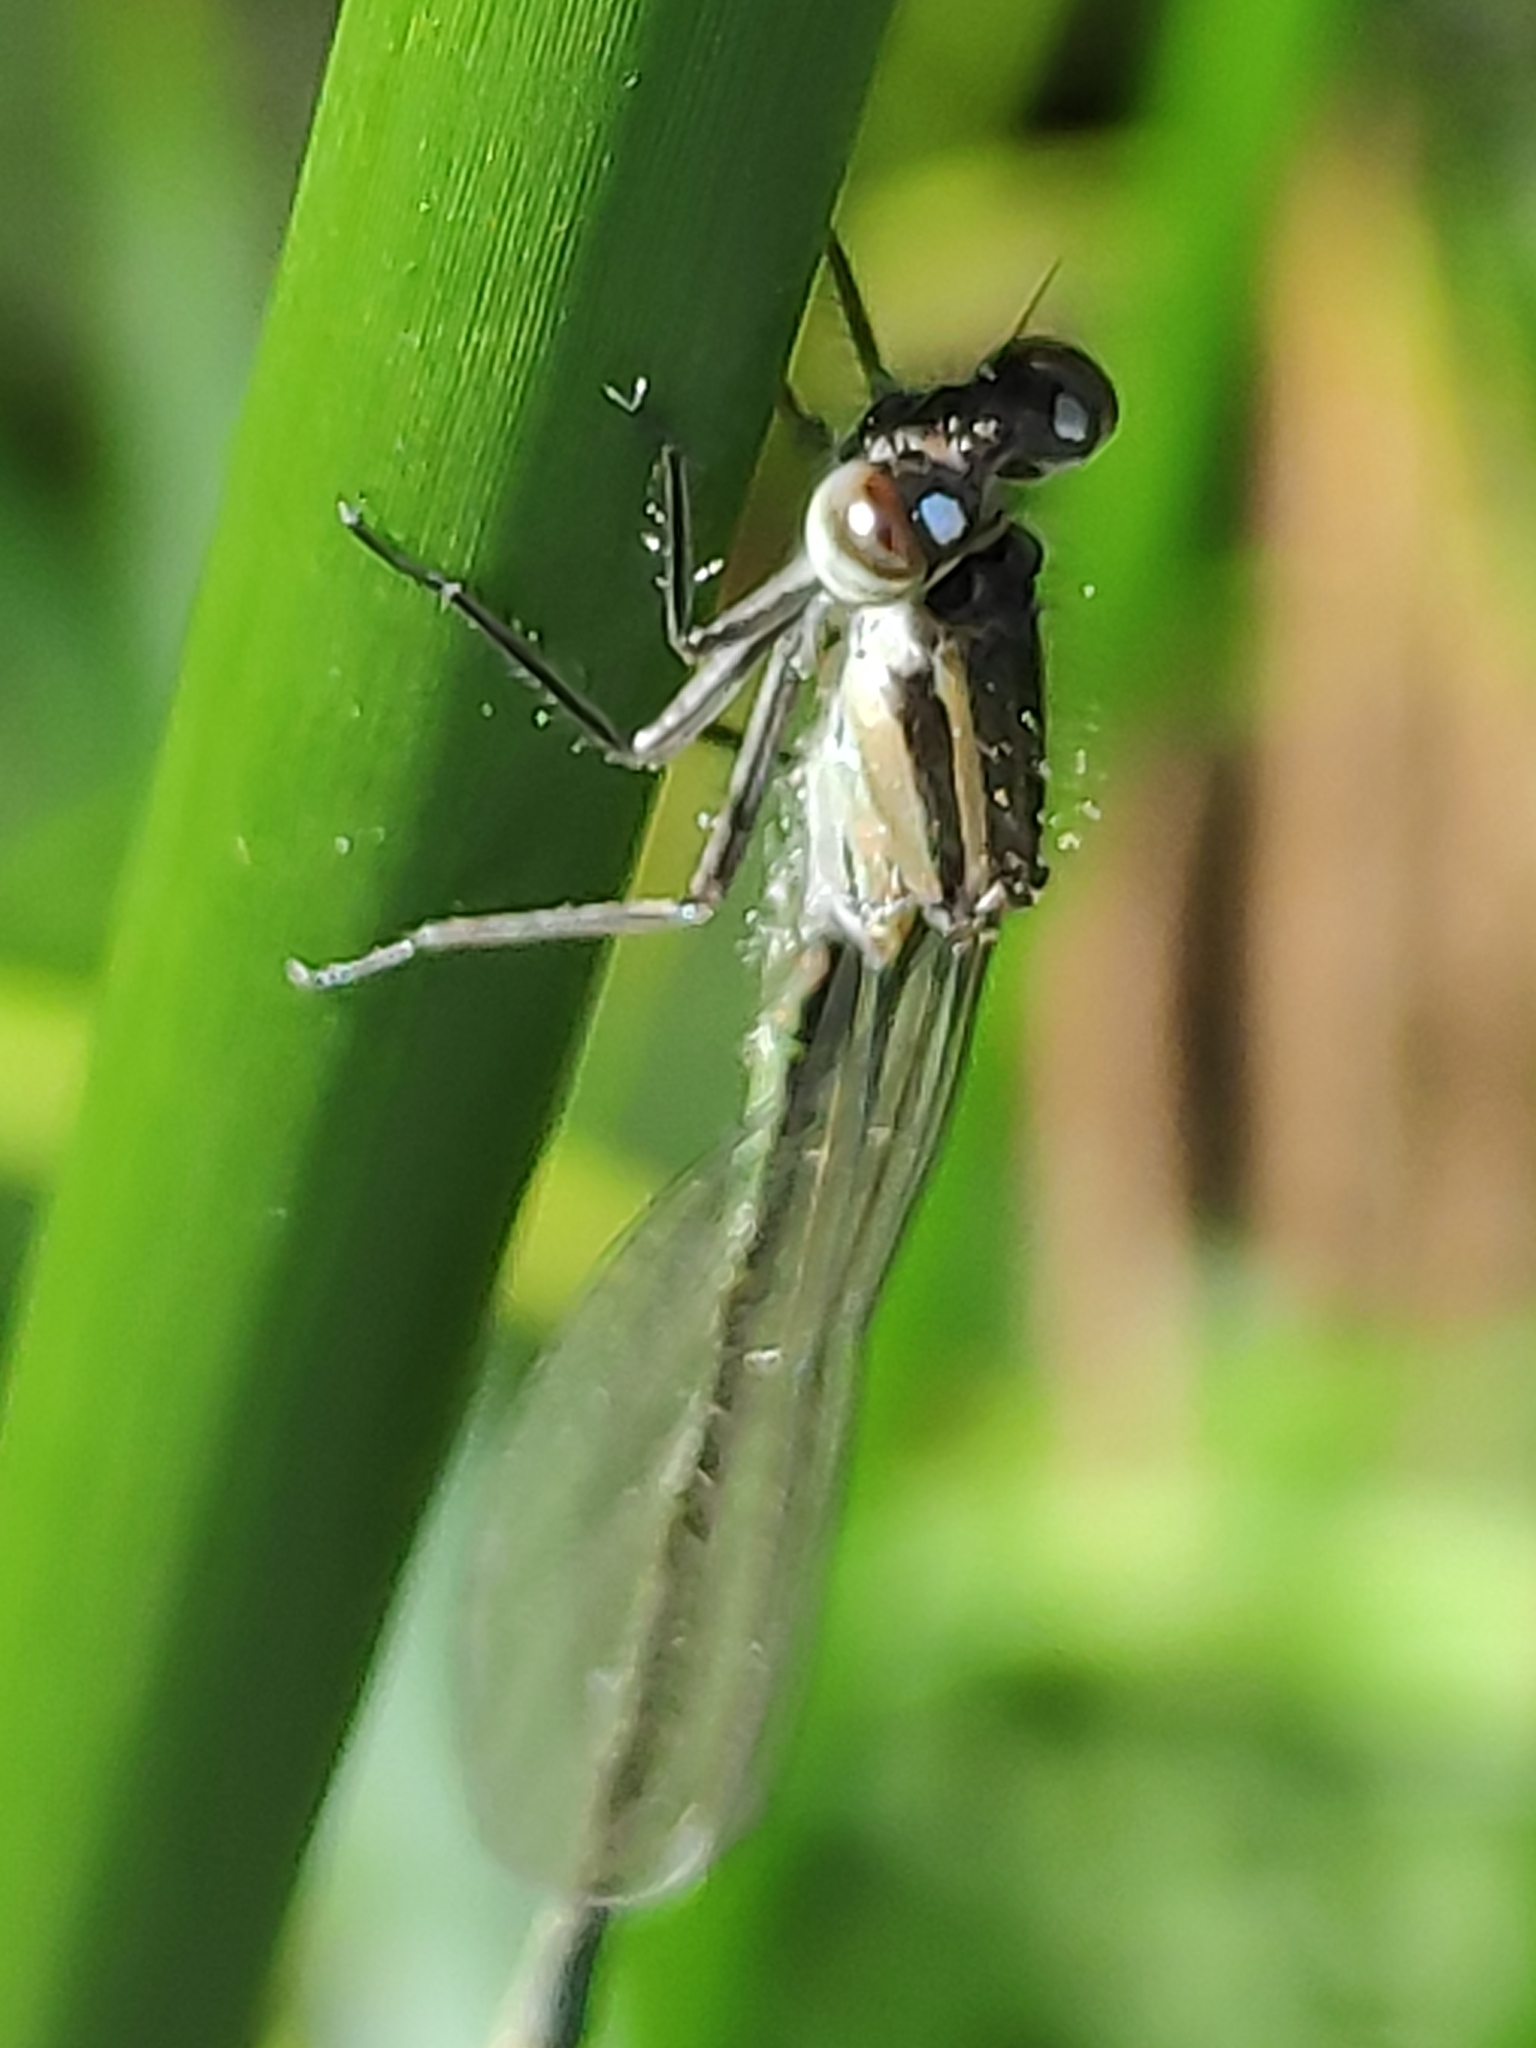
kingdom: Animalia
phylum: Arthropoda
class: Insecta
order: Odonata
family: Coenagrionidae
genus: Ischnura
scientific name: Ischnura elegans
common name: Blue-tailed damselfly
